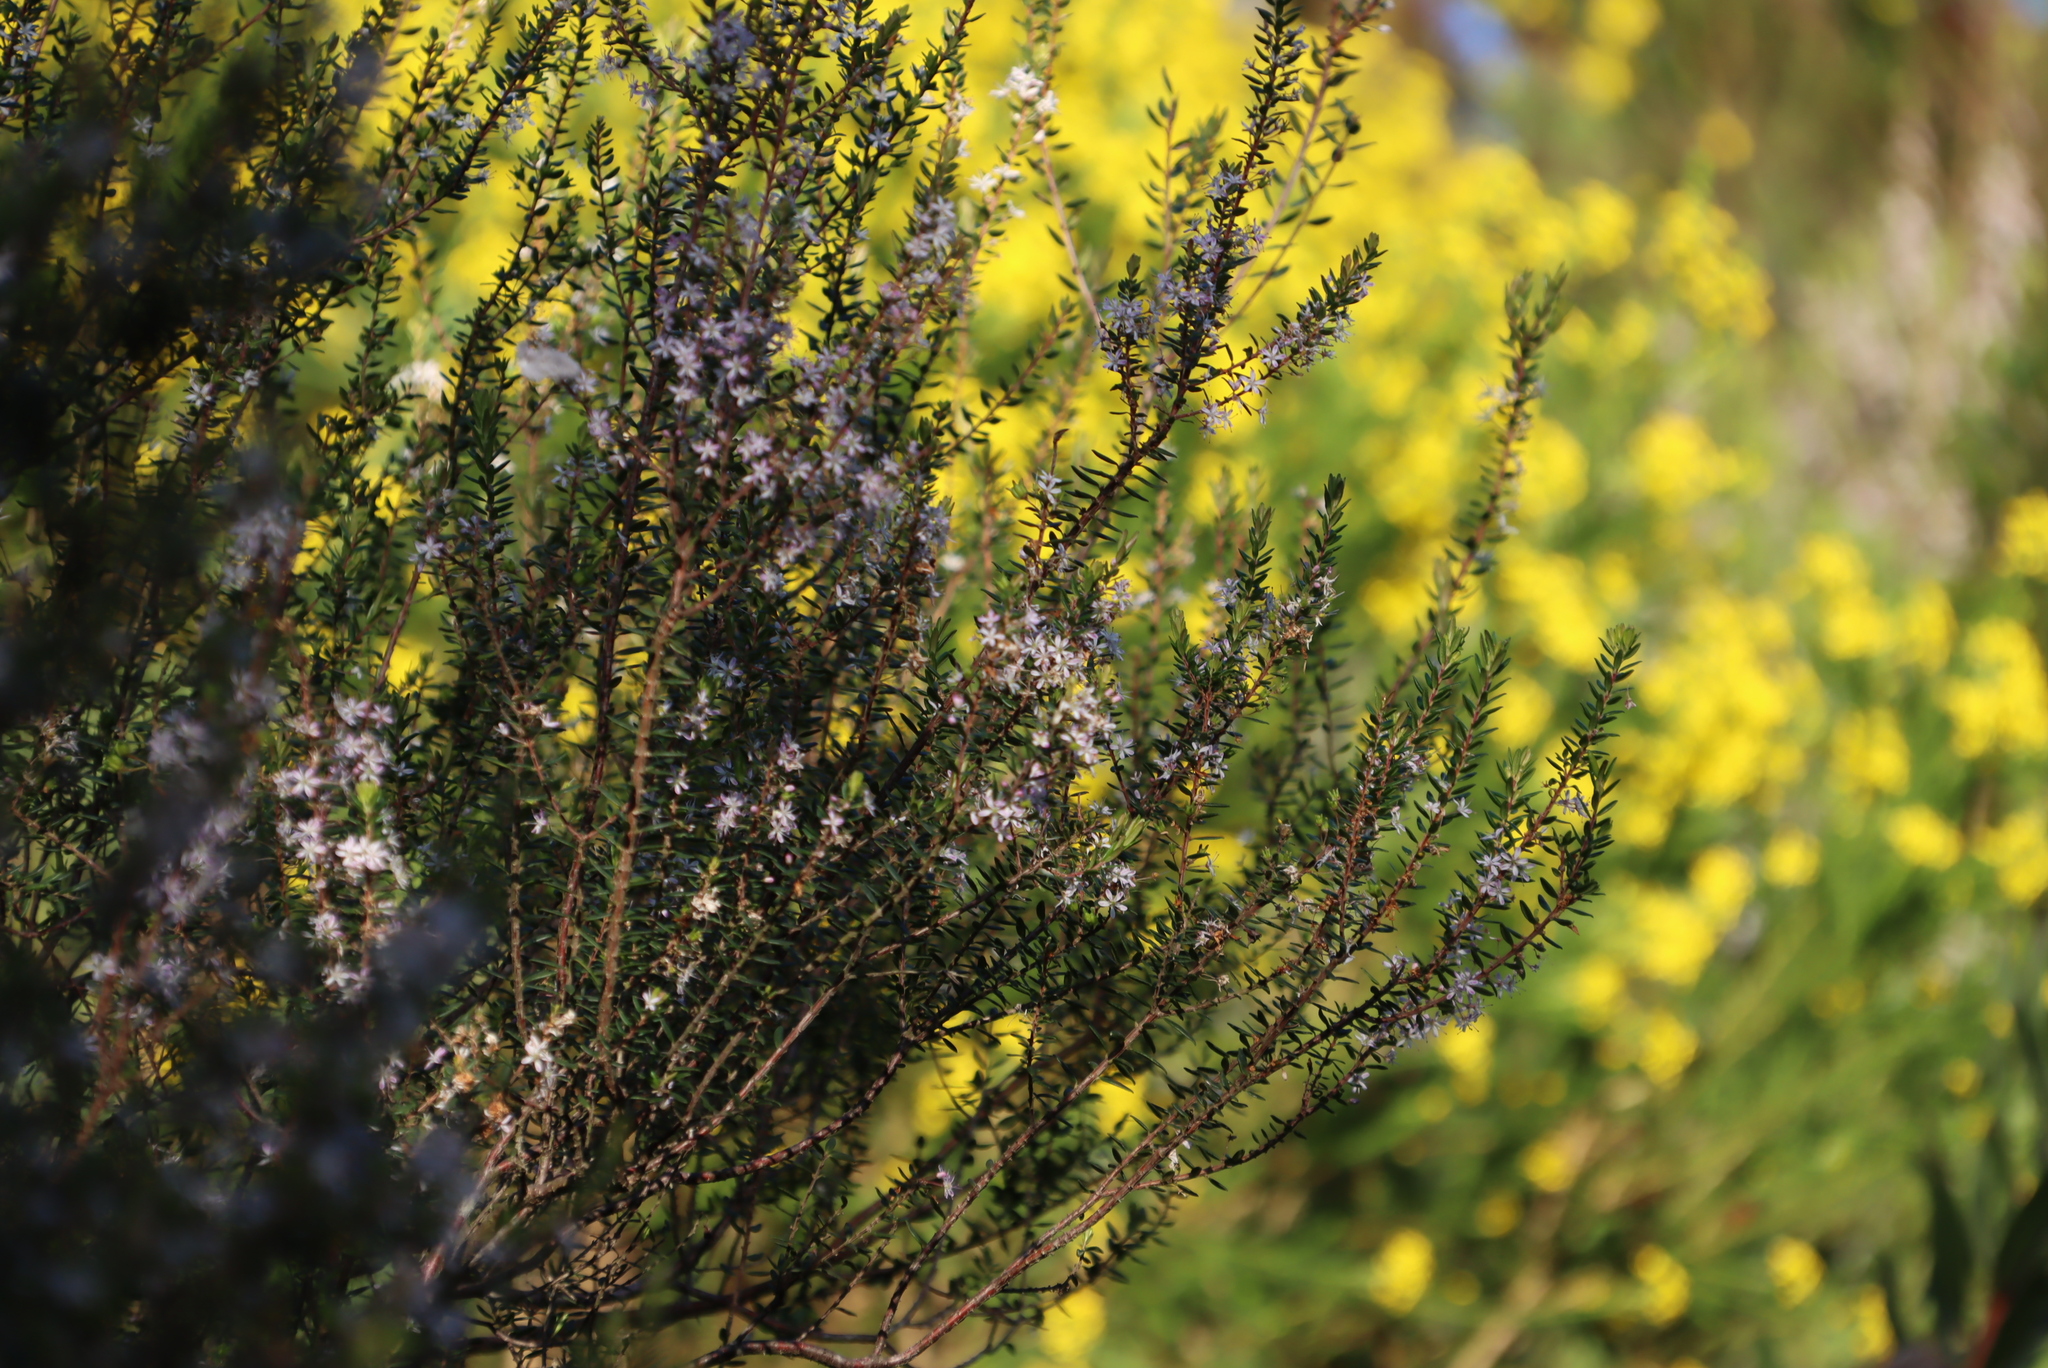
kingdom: Plantae
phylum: Tracheophyta
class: Magnoliopsida
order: Sapindales
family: Rutaceae
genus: Agathosma
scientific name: Agathosma ovata
